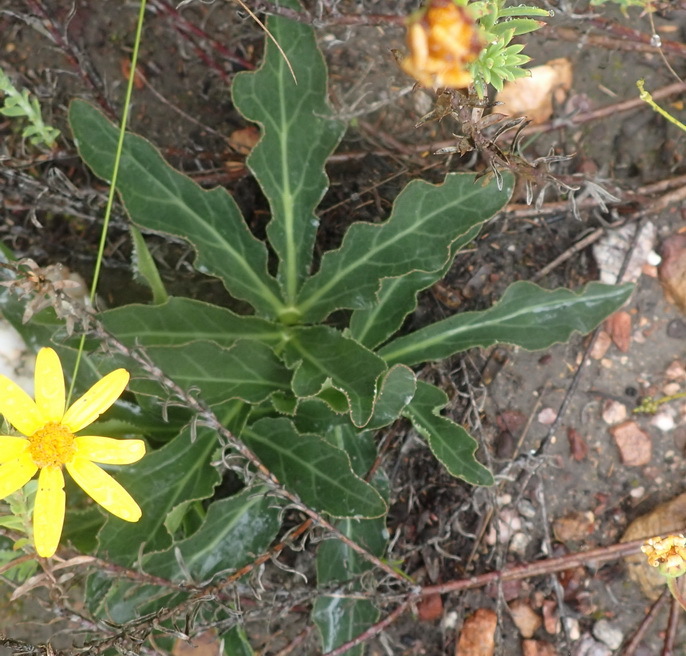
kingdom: Plantae
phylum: Tracheophyta
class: Magnoliopsida
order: Apiales
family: Apiaceae
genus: Lichtensteinia
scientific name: Lichtensteinia trifida
